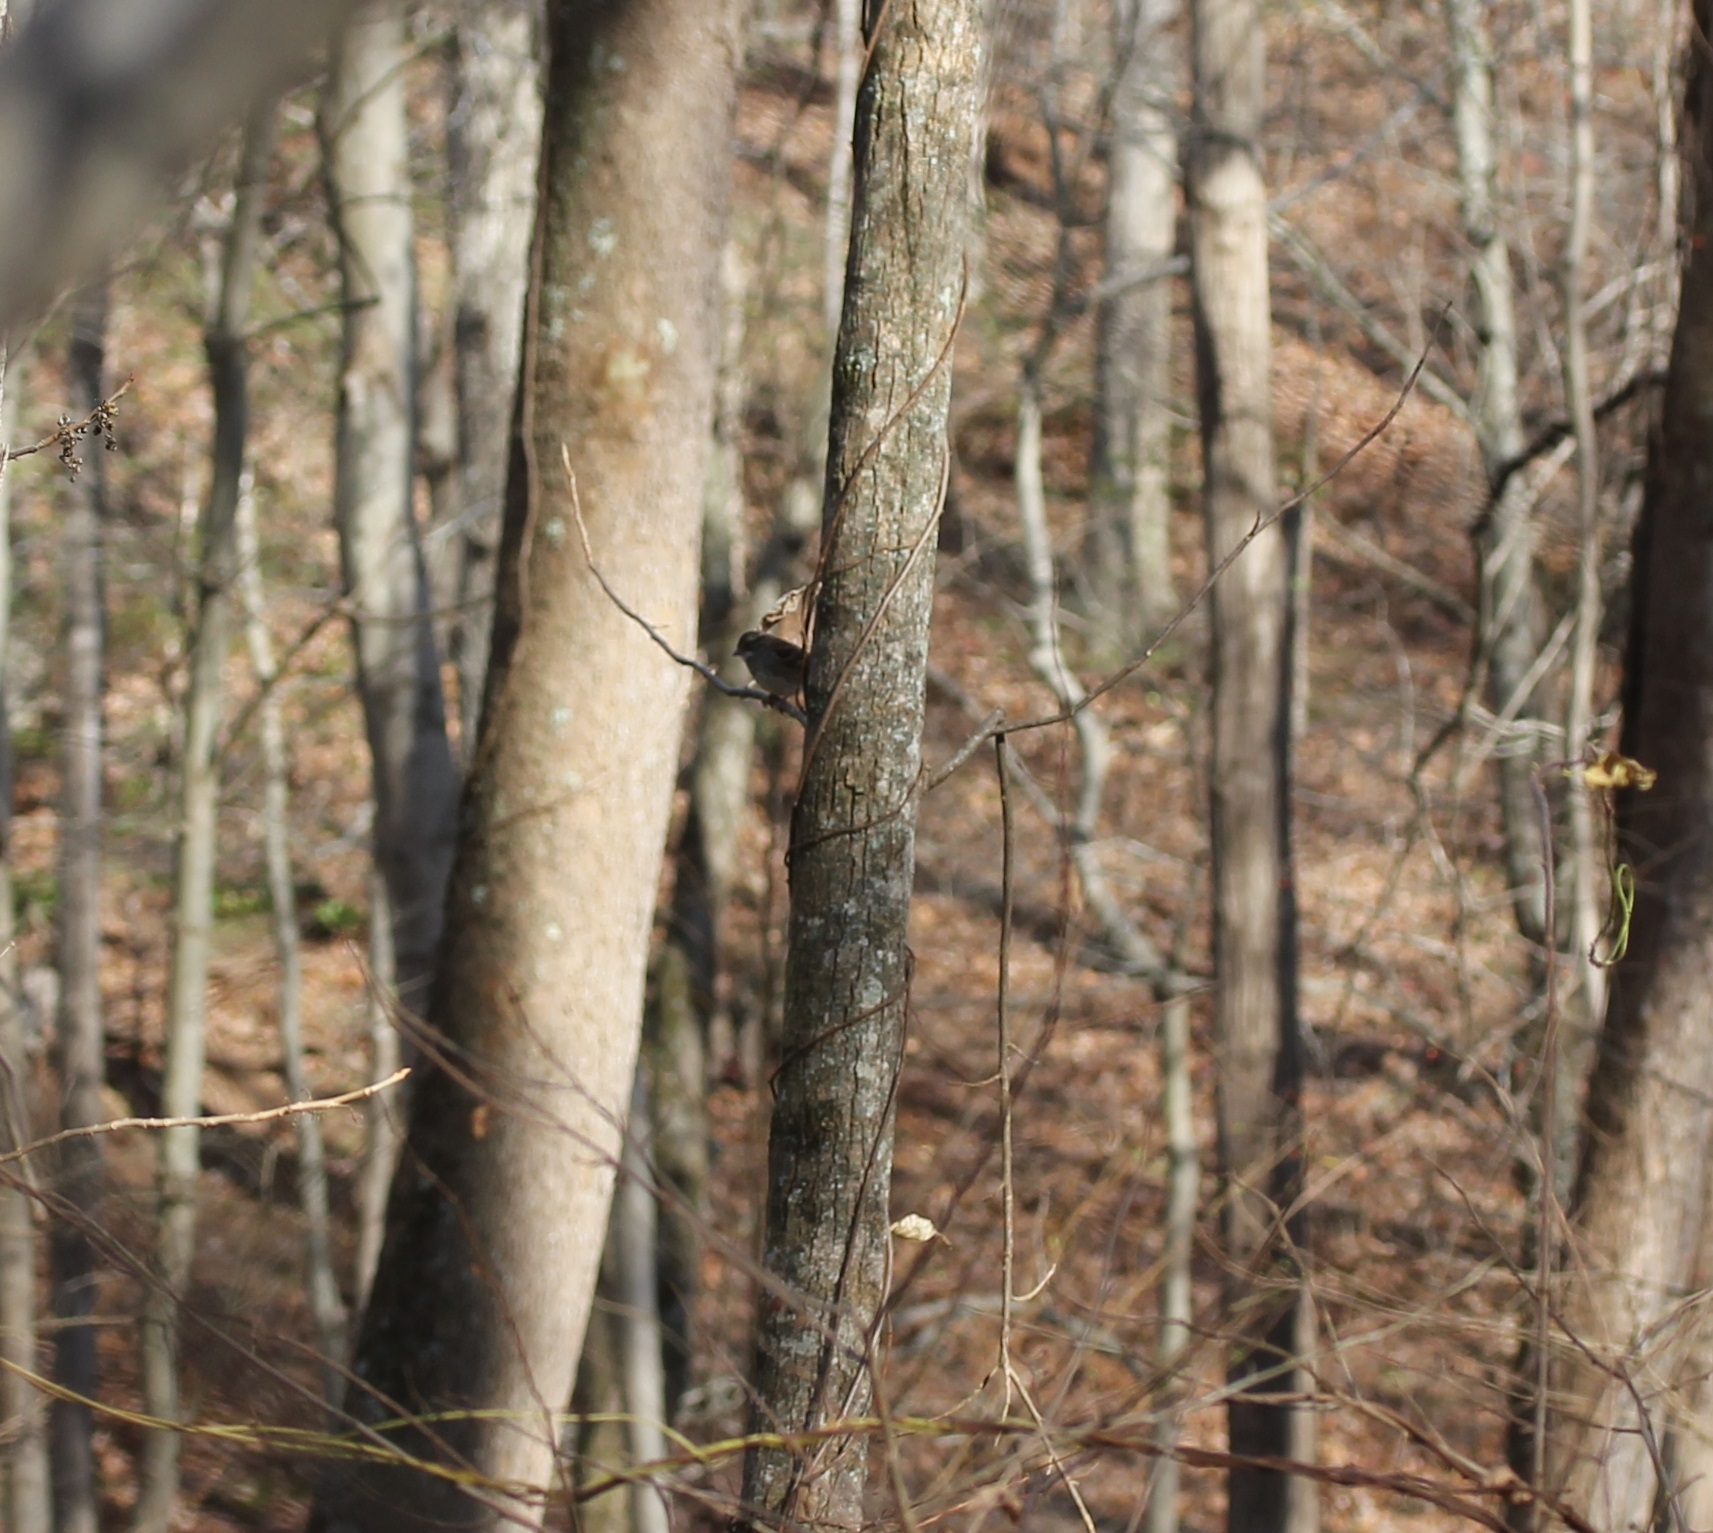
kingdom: Animalia
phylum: Chordata
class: Aves
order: Passeriformes
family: Passerellidae
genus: Zonotrichia
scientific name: Zonotrichia albicollis
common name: White-throated sparrow
